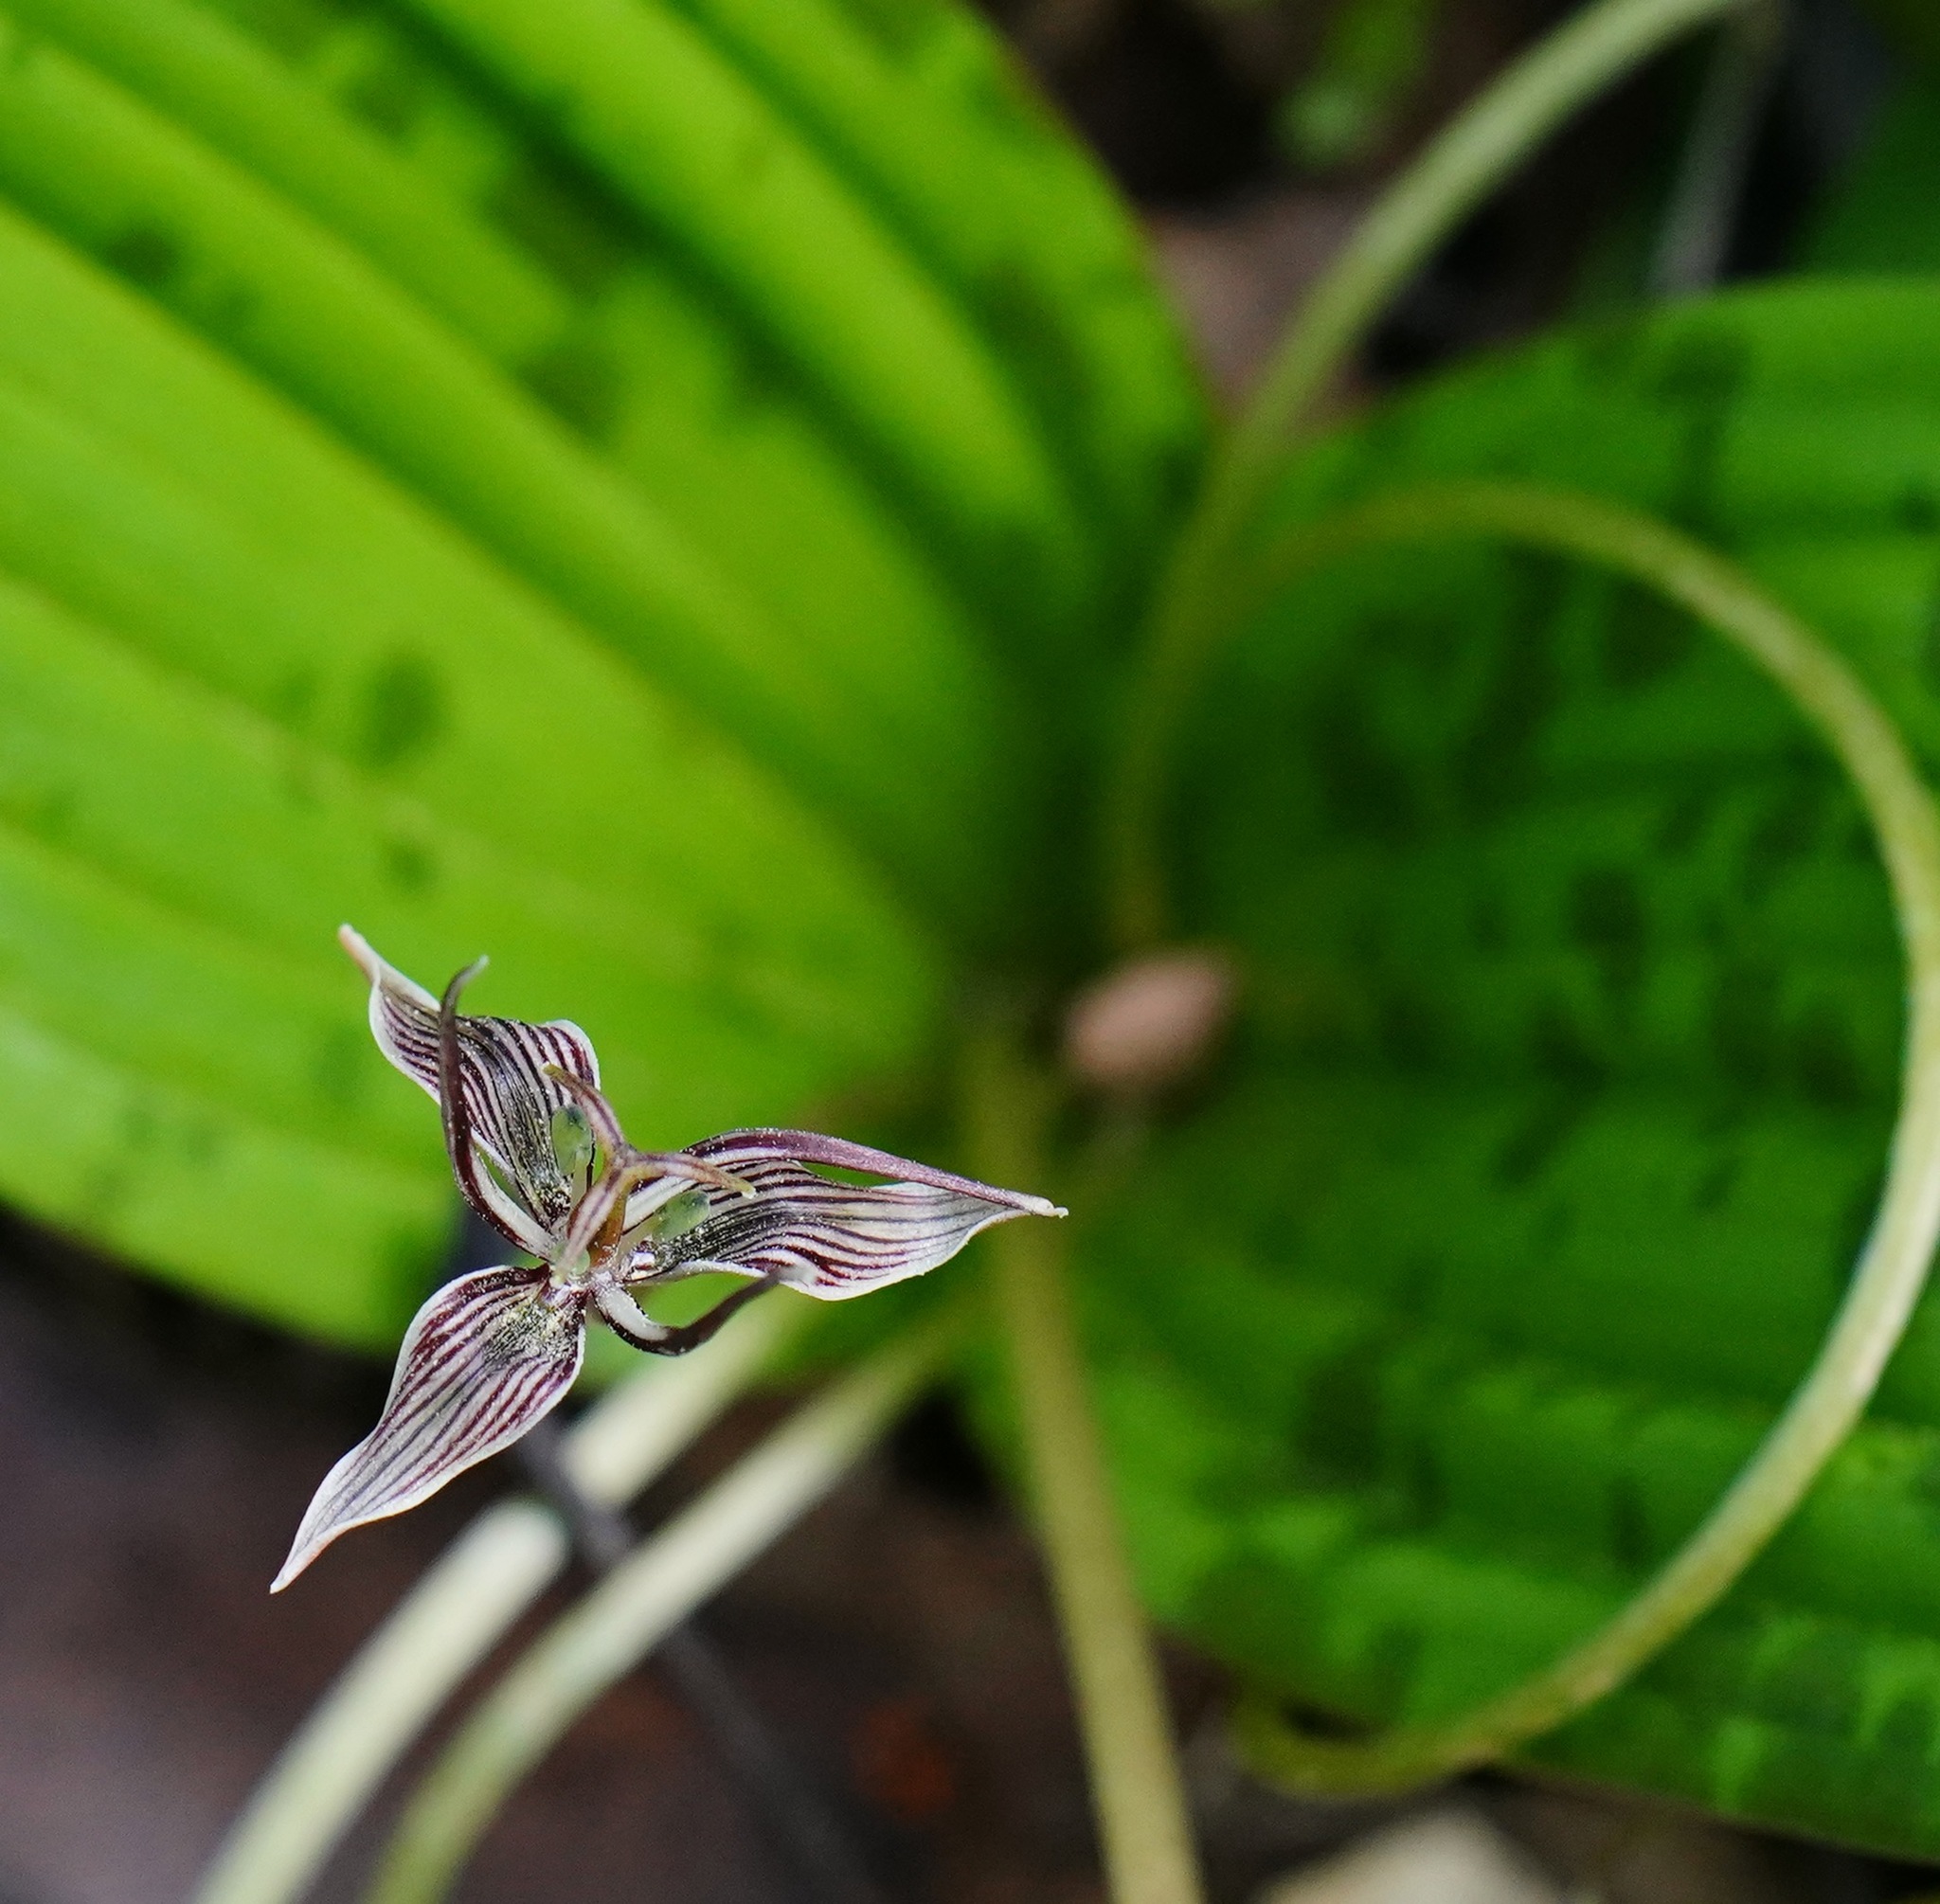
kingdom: Plantae
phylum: Tracheophyta
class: Liliopsida
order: Liliales
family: Liliaceae
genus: Scoliopus
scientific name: Scoliopus bigelovii
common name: Foetid adder's-tongue
